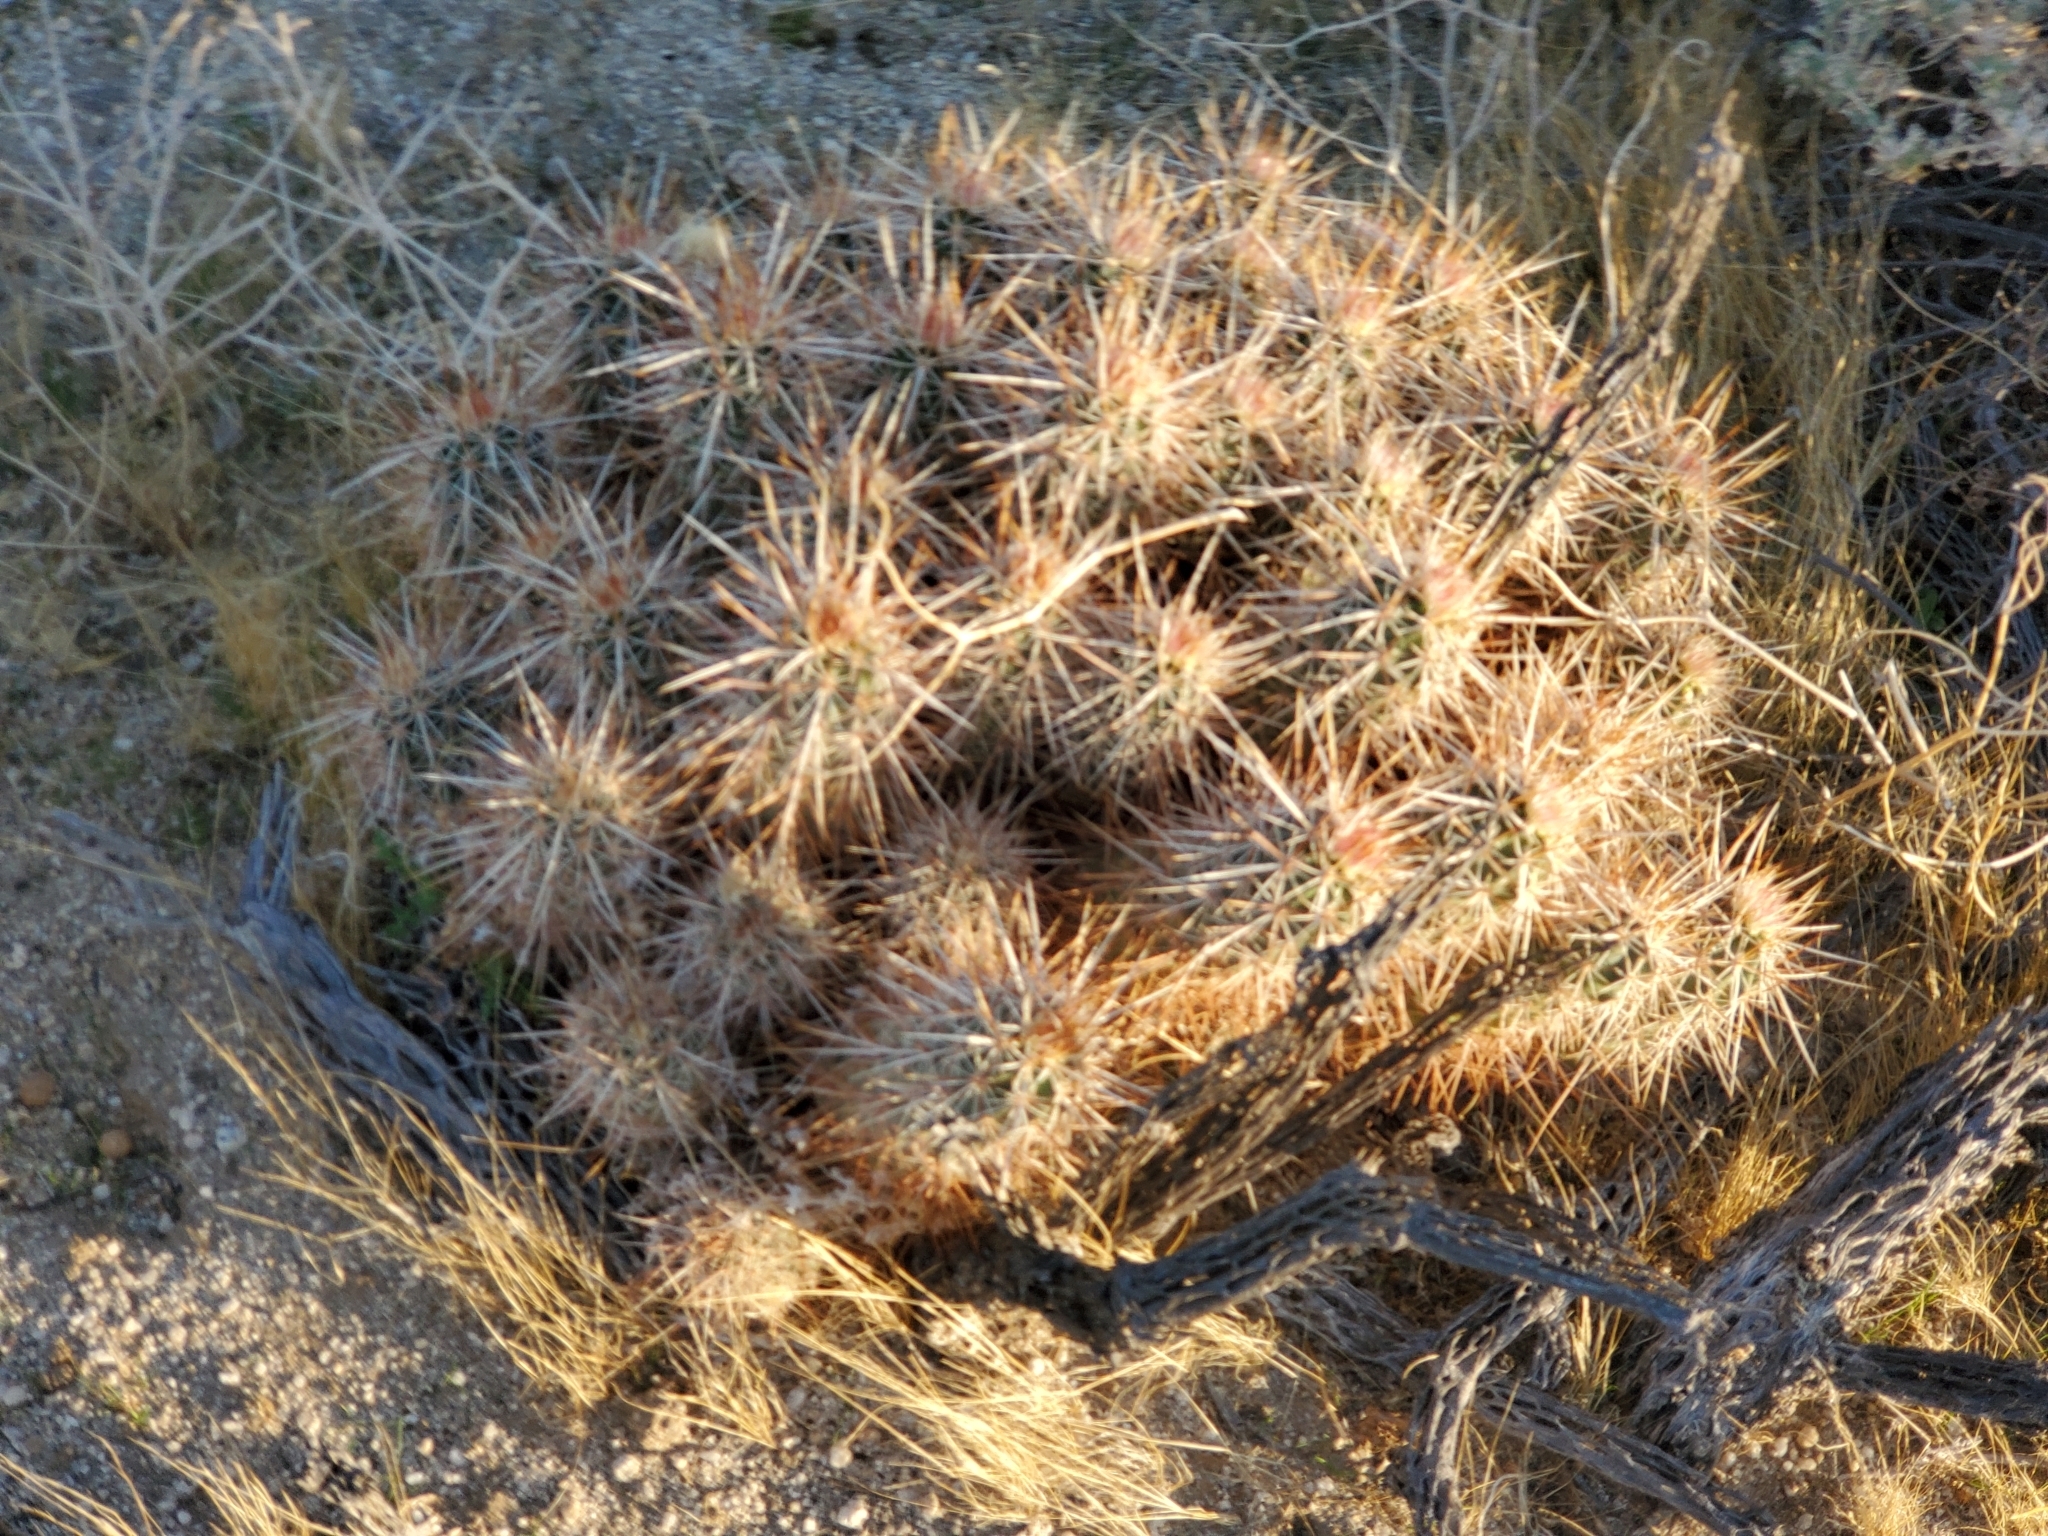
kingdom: Plantae
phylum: Tracheophyta
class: Magnoliopsida
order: Caryophyllales
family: Cactaceae
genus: Echinocereus
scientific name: Echinocereus engelmannii
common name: Engelmann's hedgehog cactus
